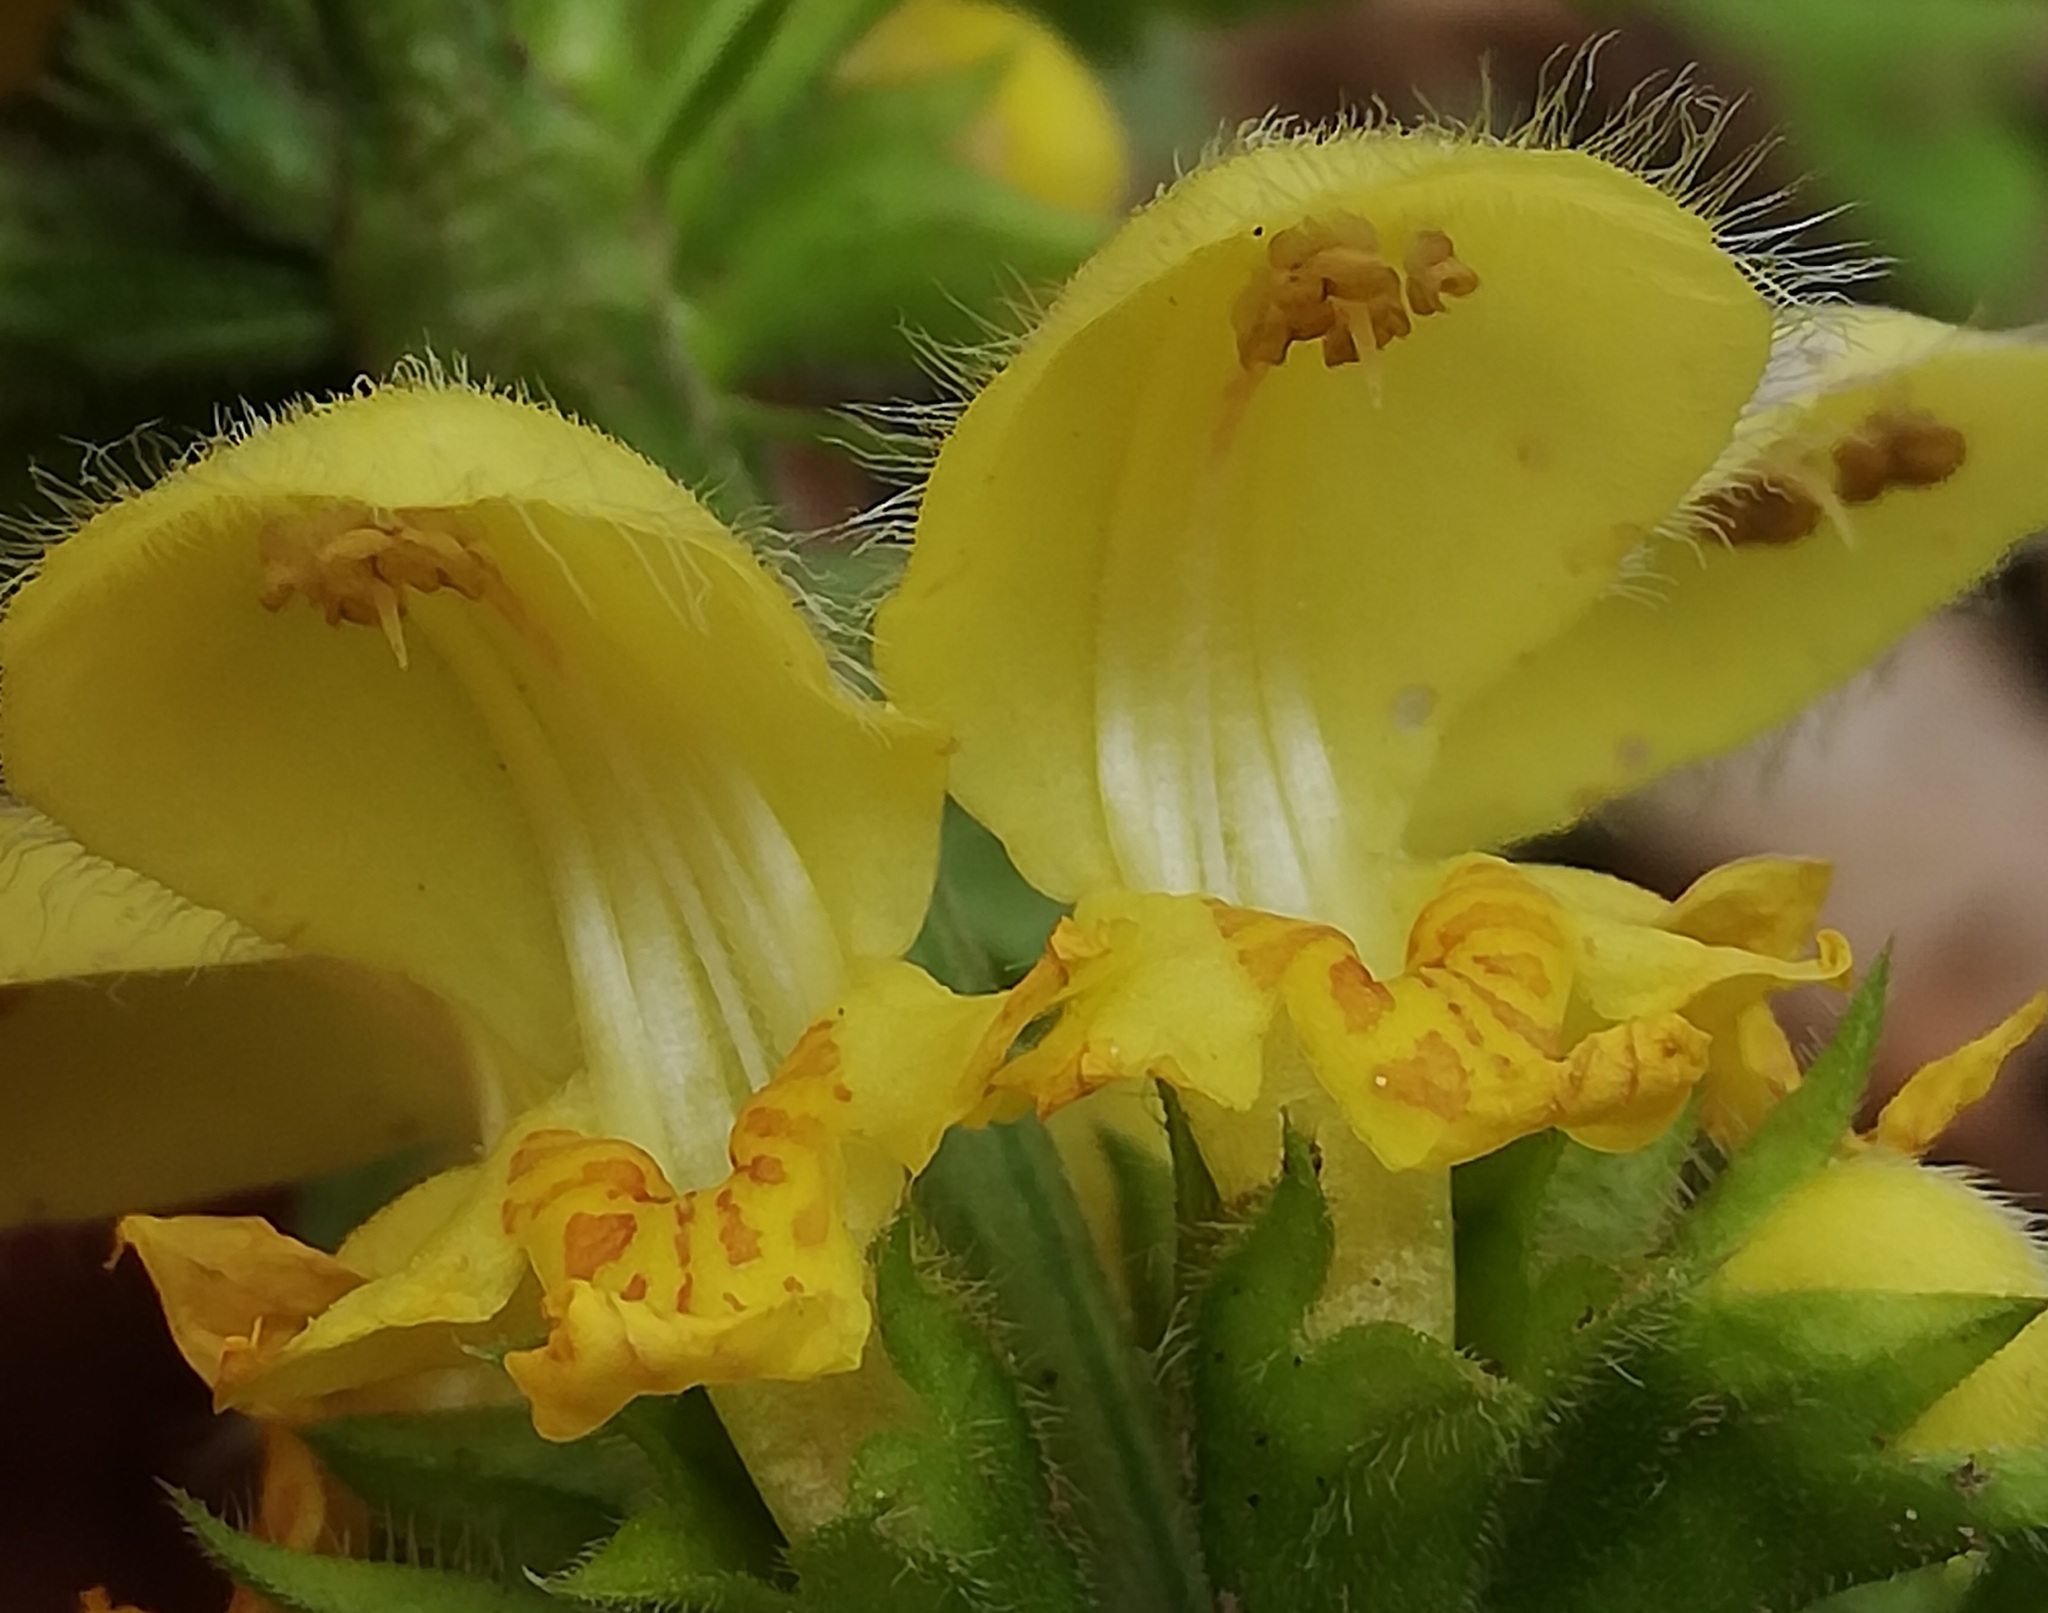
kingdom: Plantae
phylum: Tracheophyta
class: Magnoliopsida
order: Lamiales
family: Lamiaceae
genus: Lamium
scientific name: Lamium galeobdolon
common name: Yellow archangel
